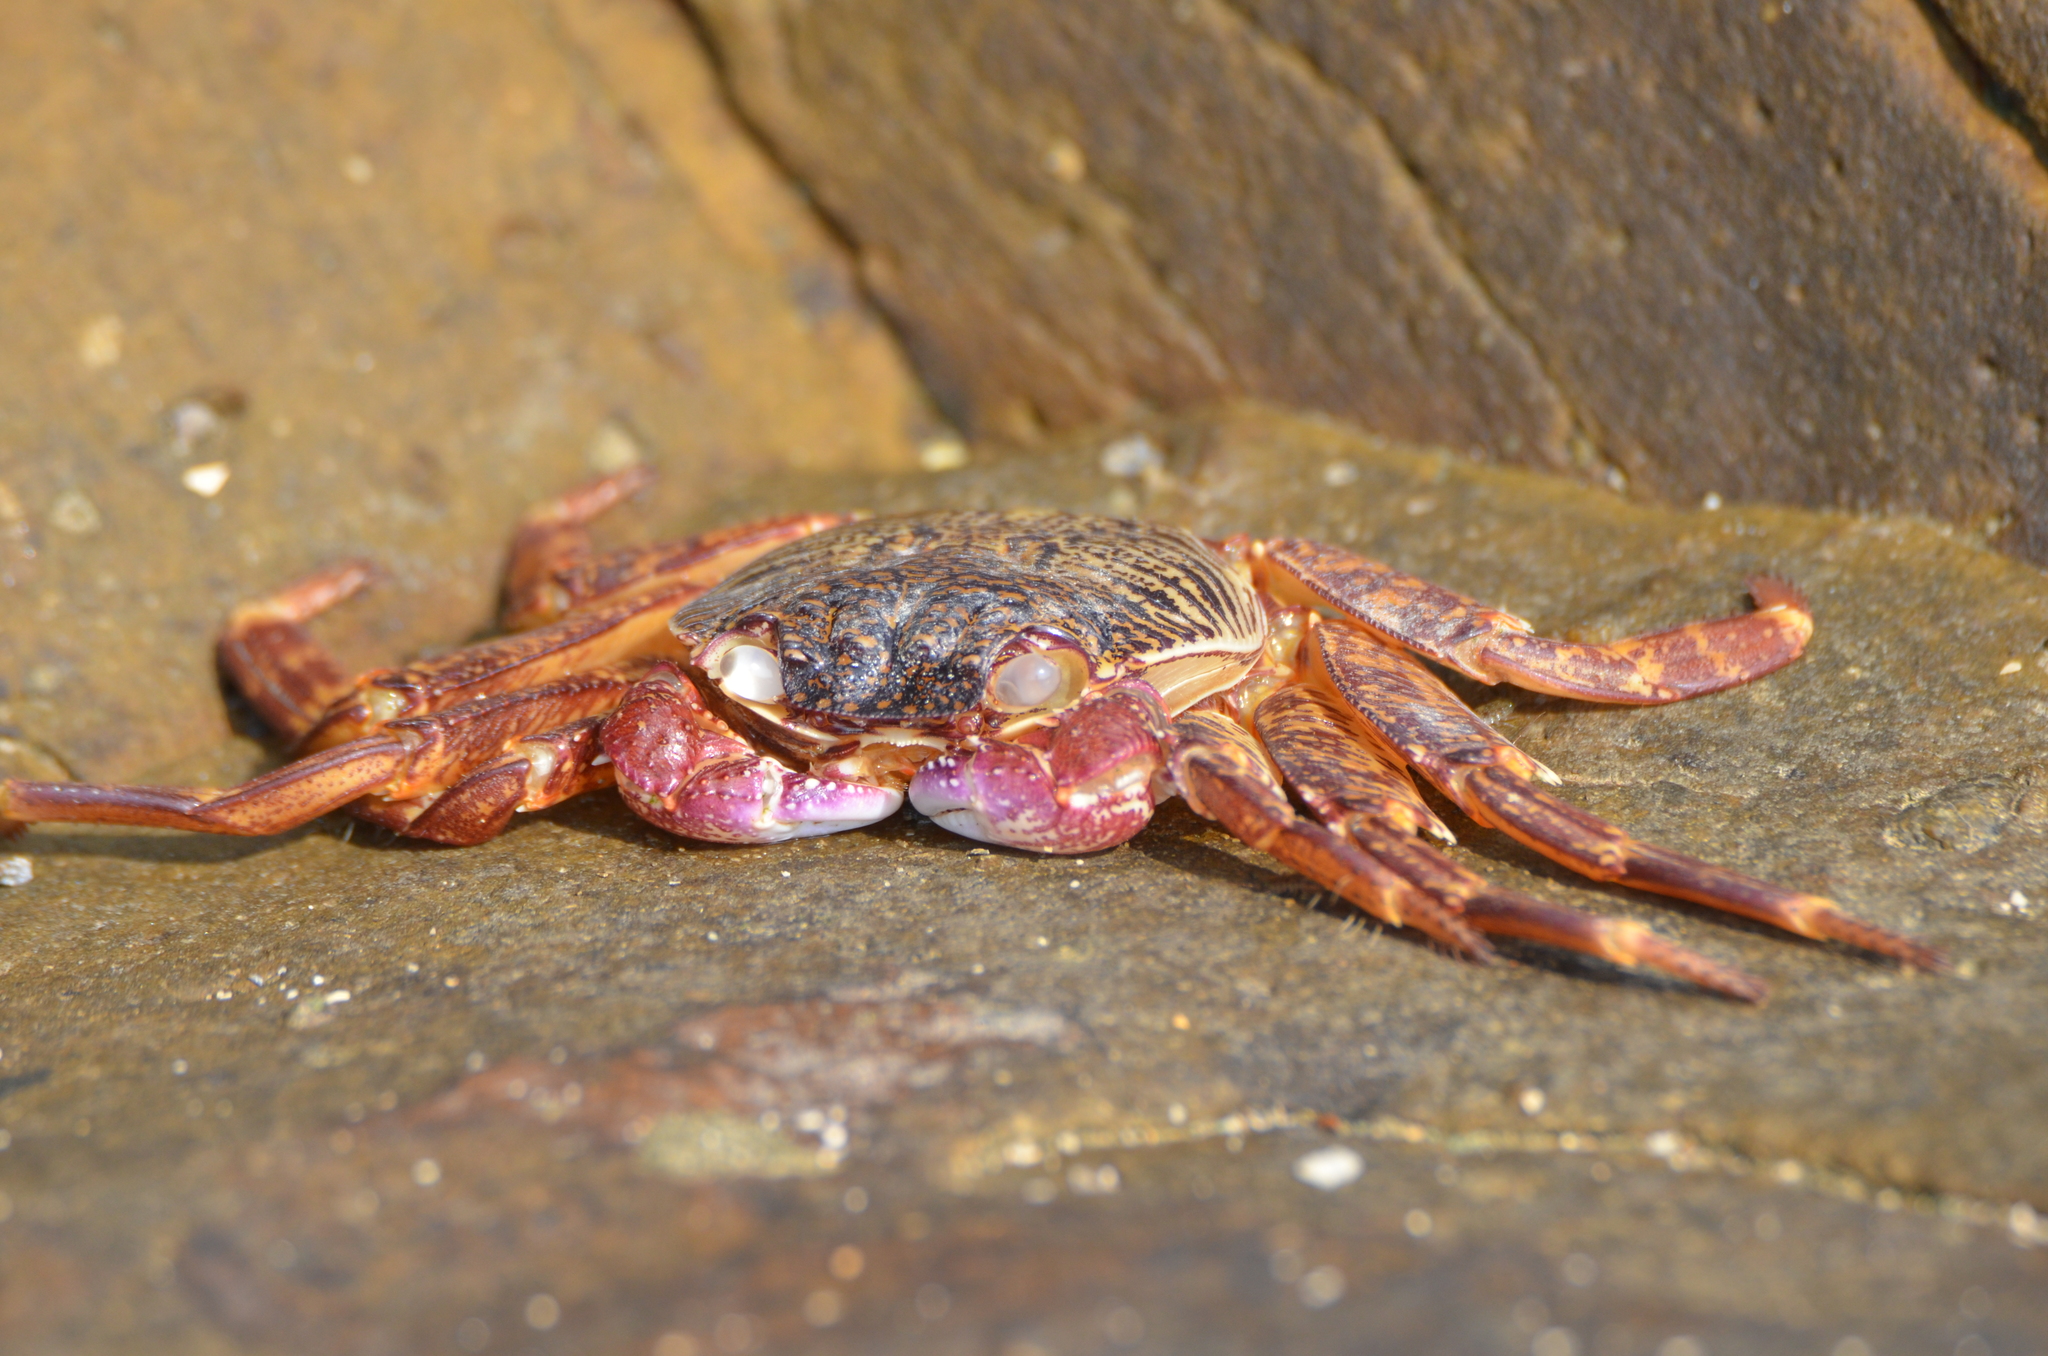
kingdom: Animalia
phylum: Arthropoda
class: Malacostraca
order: Decapoda
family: Grapsidae
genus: Grapsus
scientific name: Grapsus albolineatus
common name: Mottled lightfoot crab
